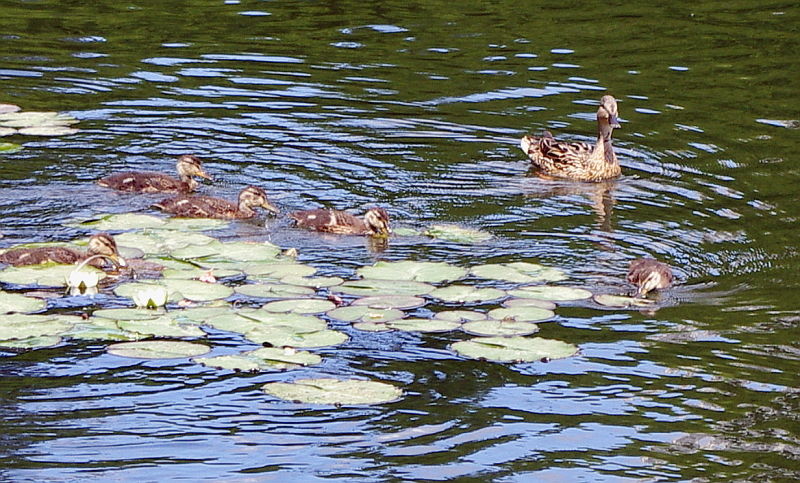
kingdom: Animalia
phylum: Chordata
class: Aves
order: Anseriformes
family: Anatidae
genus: Anas
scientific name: Anas platyrhynchos
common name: Mallard
